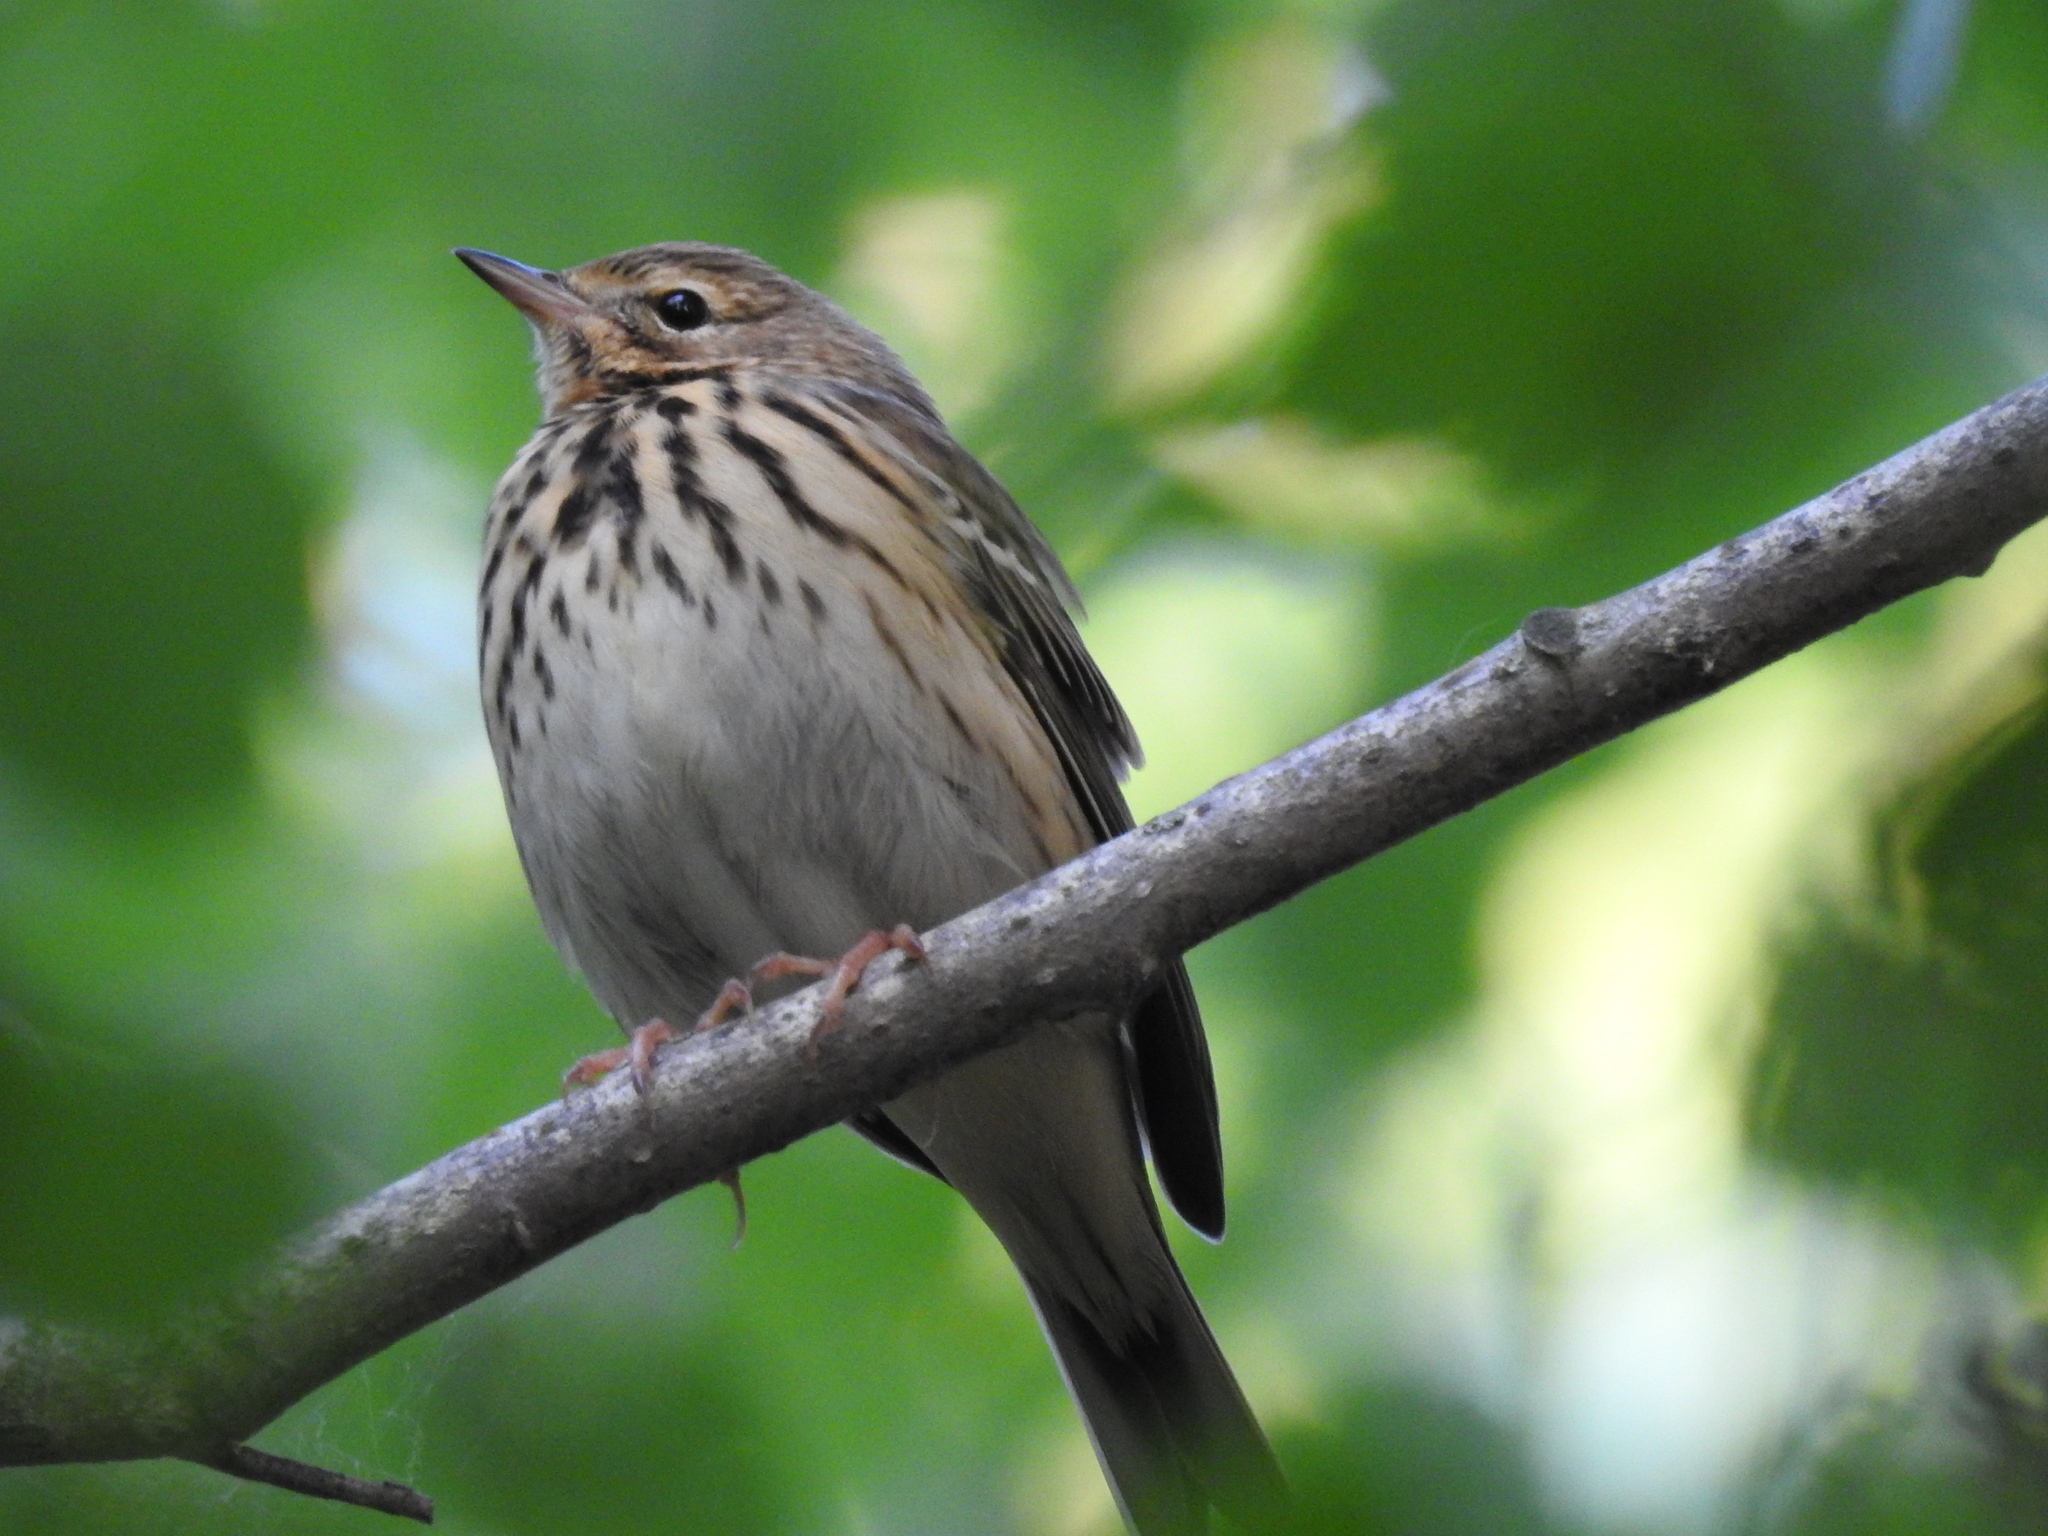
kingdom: Animalia
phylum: Chordata
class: Aves
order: Passeriformes
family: Motacillidae
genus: Anthus
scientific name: Anthus trivialis
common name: Tree pipit
